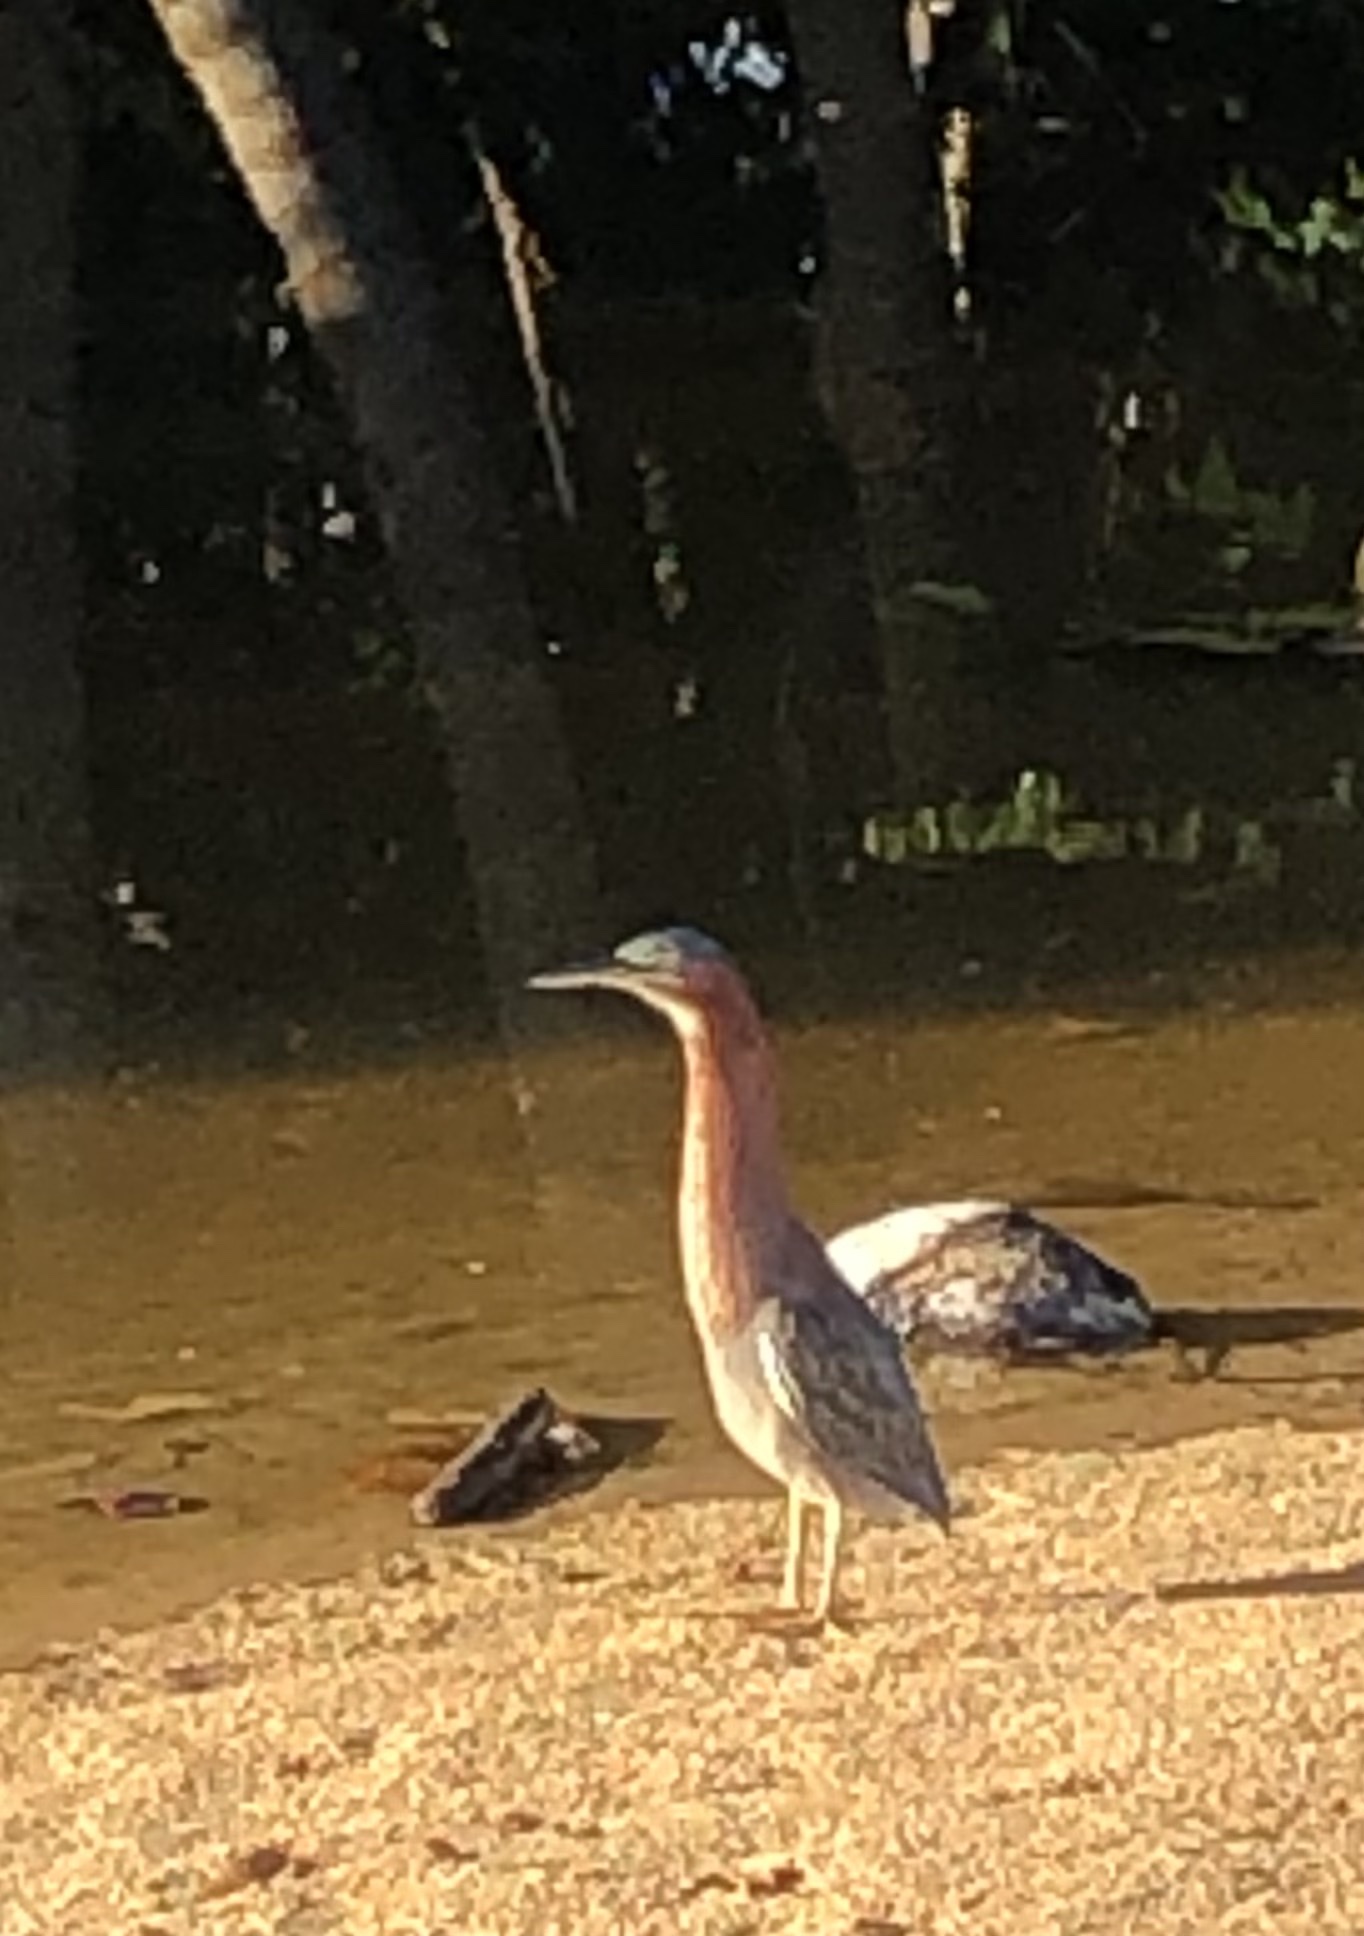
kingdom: Animalia
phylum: Chordata
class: Aves
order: Pelecaniformes
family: Ardeidae
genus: Butorides
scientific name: Butorides virescens
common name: Green heron
